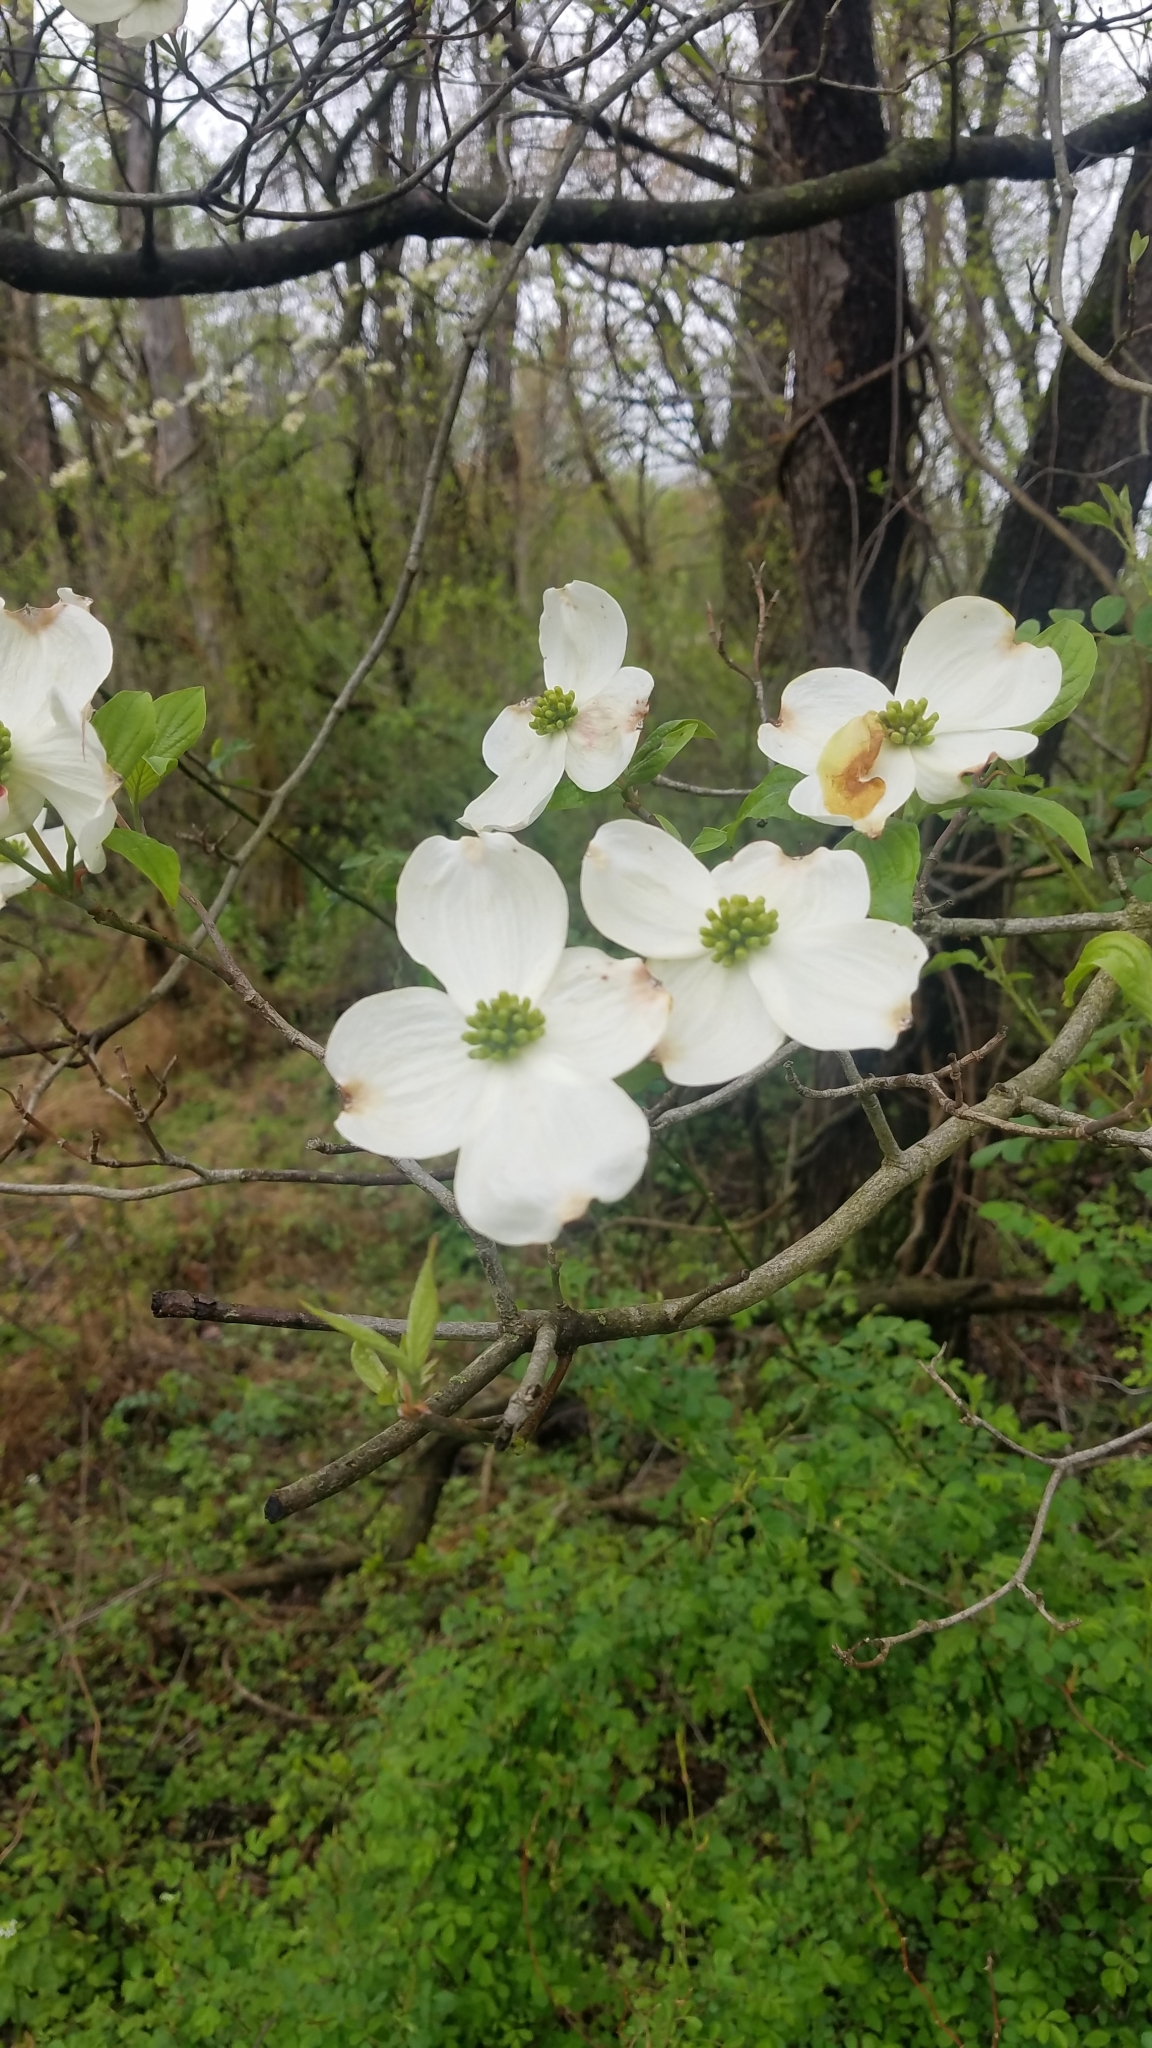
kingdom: Plantae
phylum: Tracheophyta
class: Magnoliopsida
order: Cornales
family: Cornaceae
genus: Cornus
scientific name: Cornus florida
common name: Flowering dogwood
